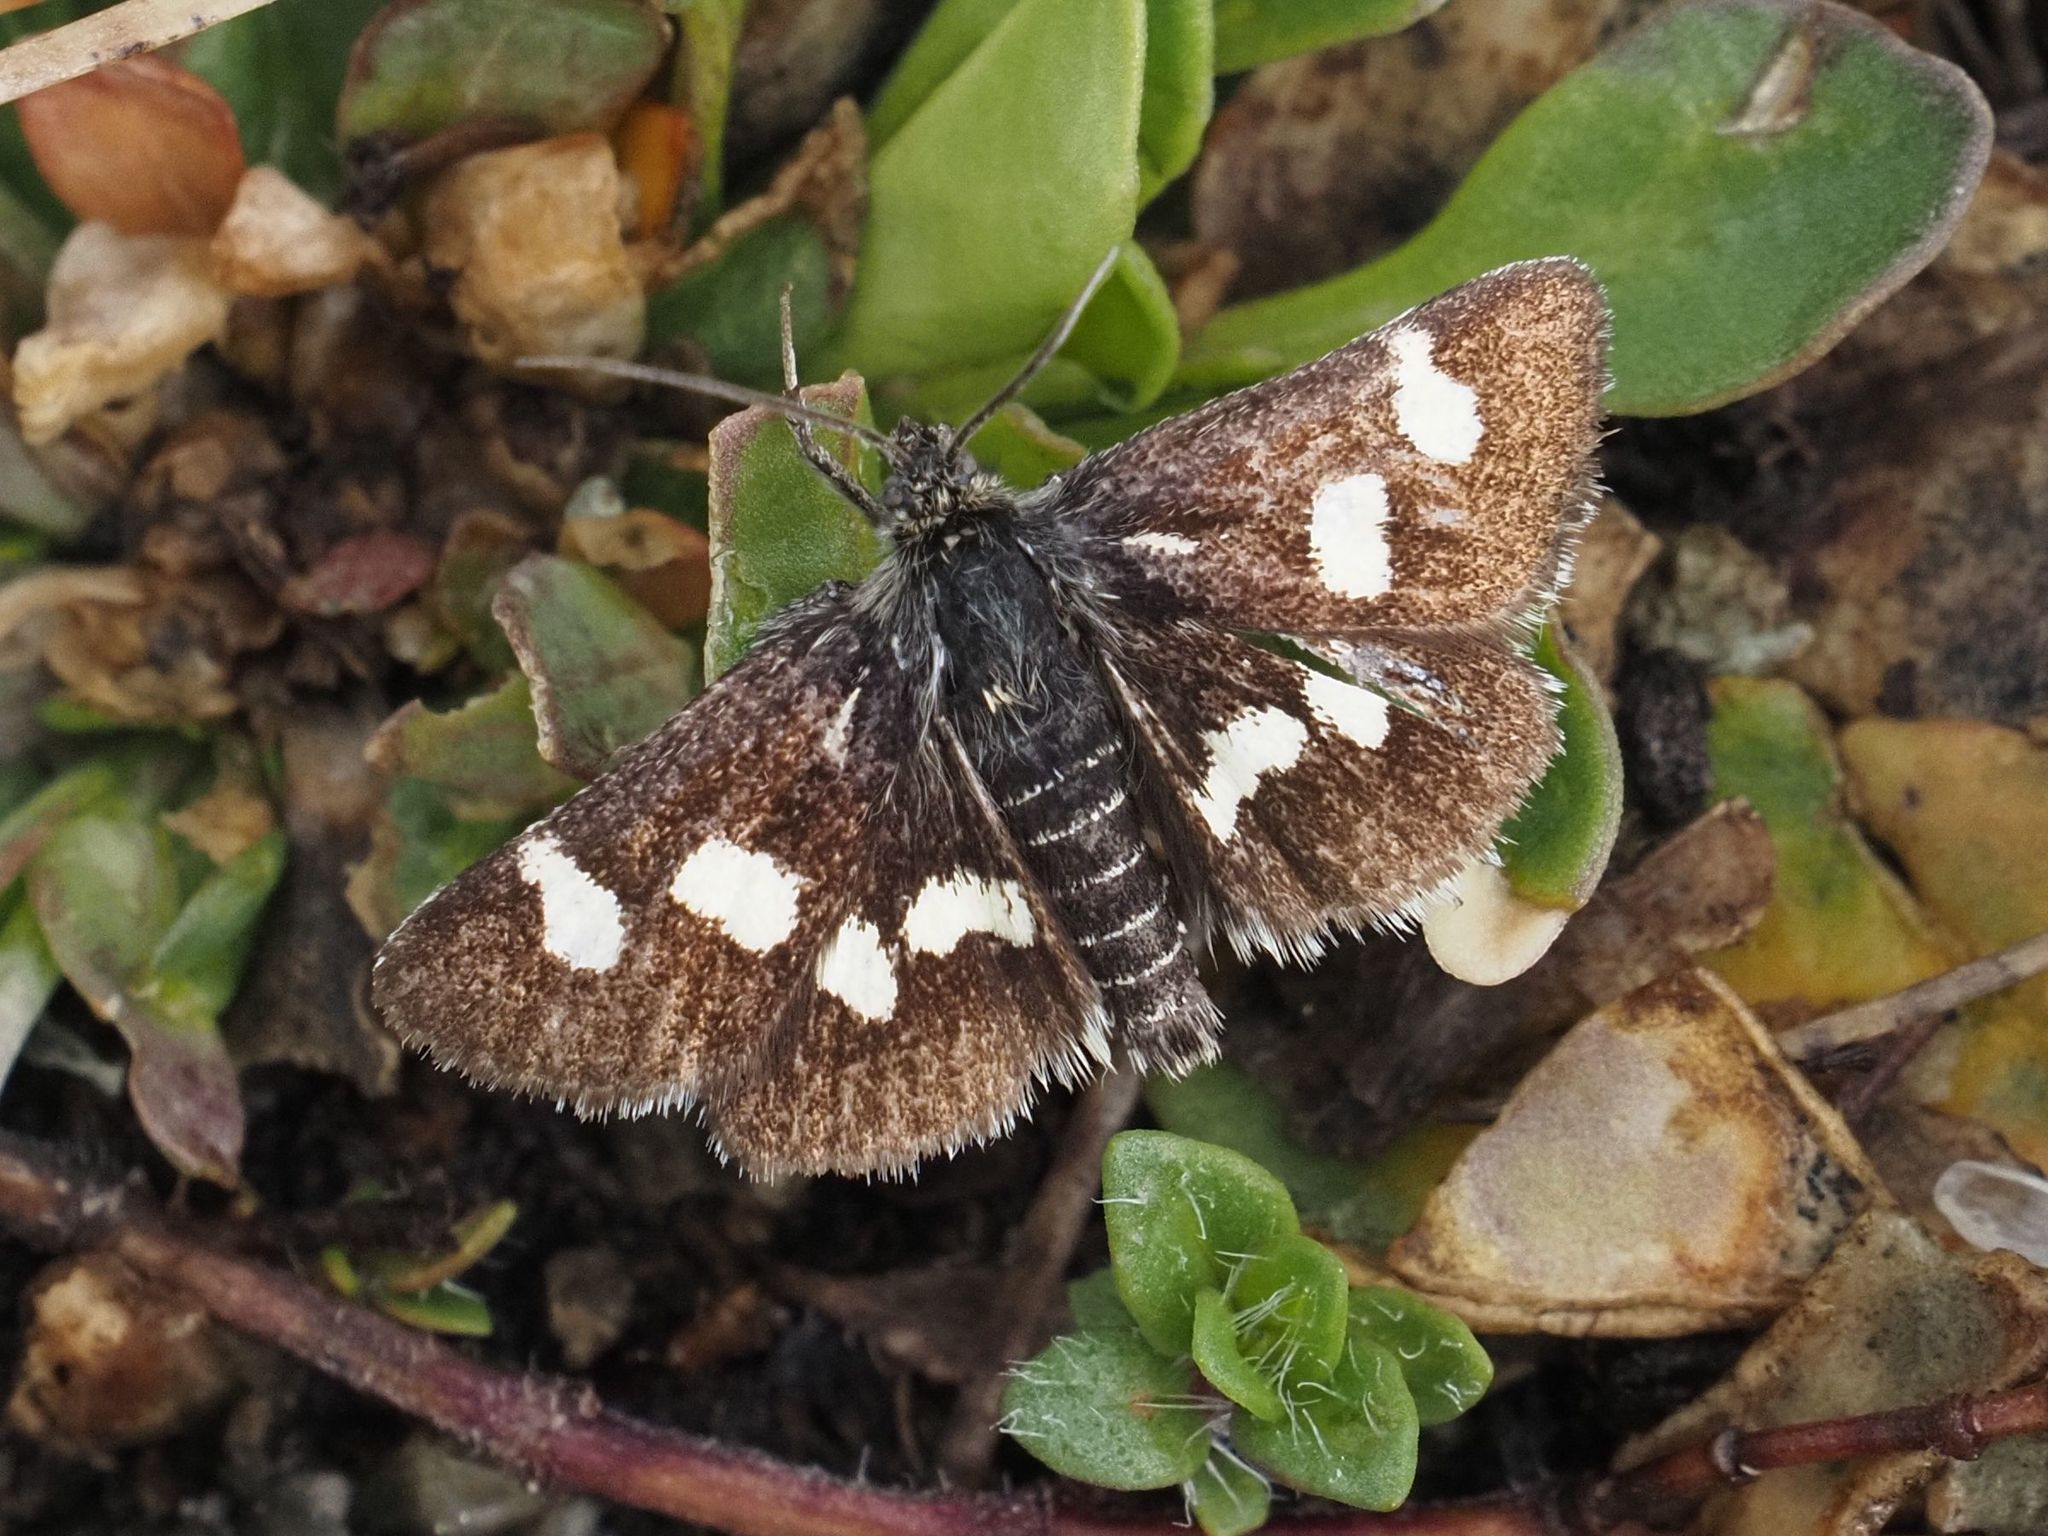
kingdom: Animalia
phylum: Arthropoda
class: Insecta
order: Lepidoptera
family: Crambidae
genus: Eurrhypis
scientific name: Eurrhypis pollinalis
